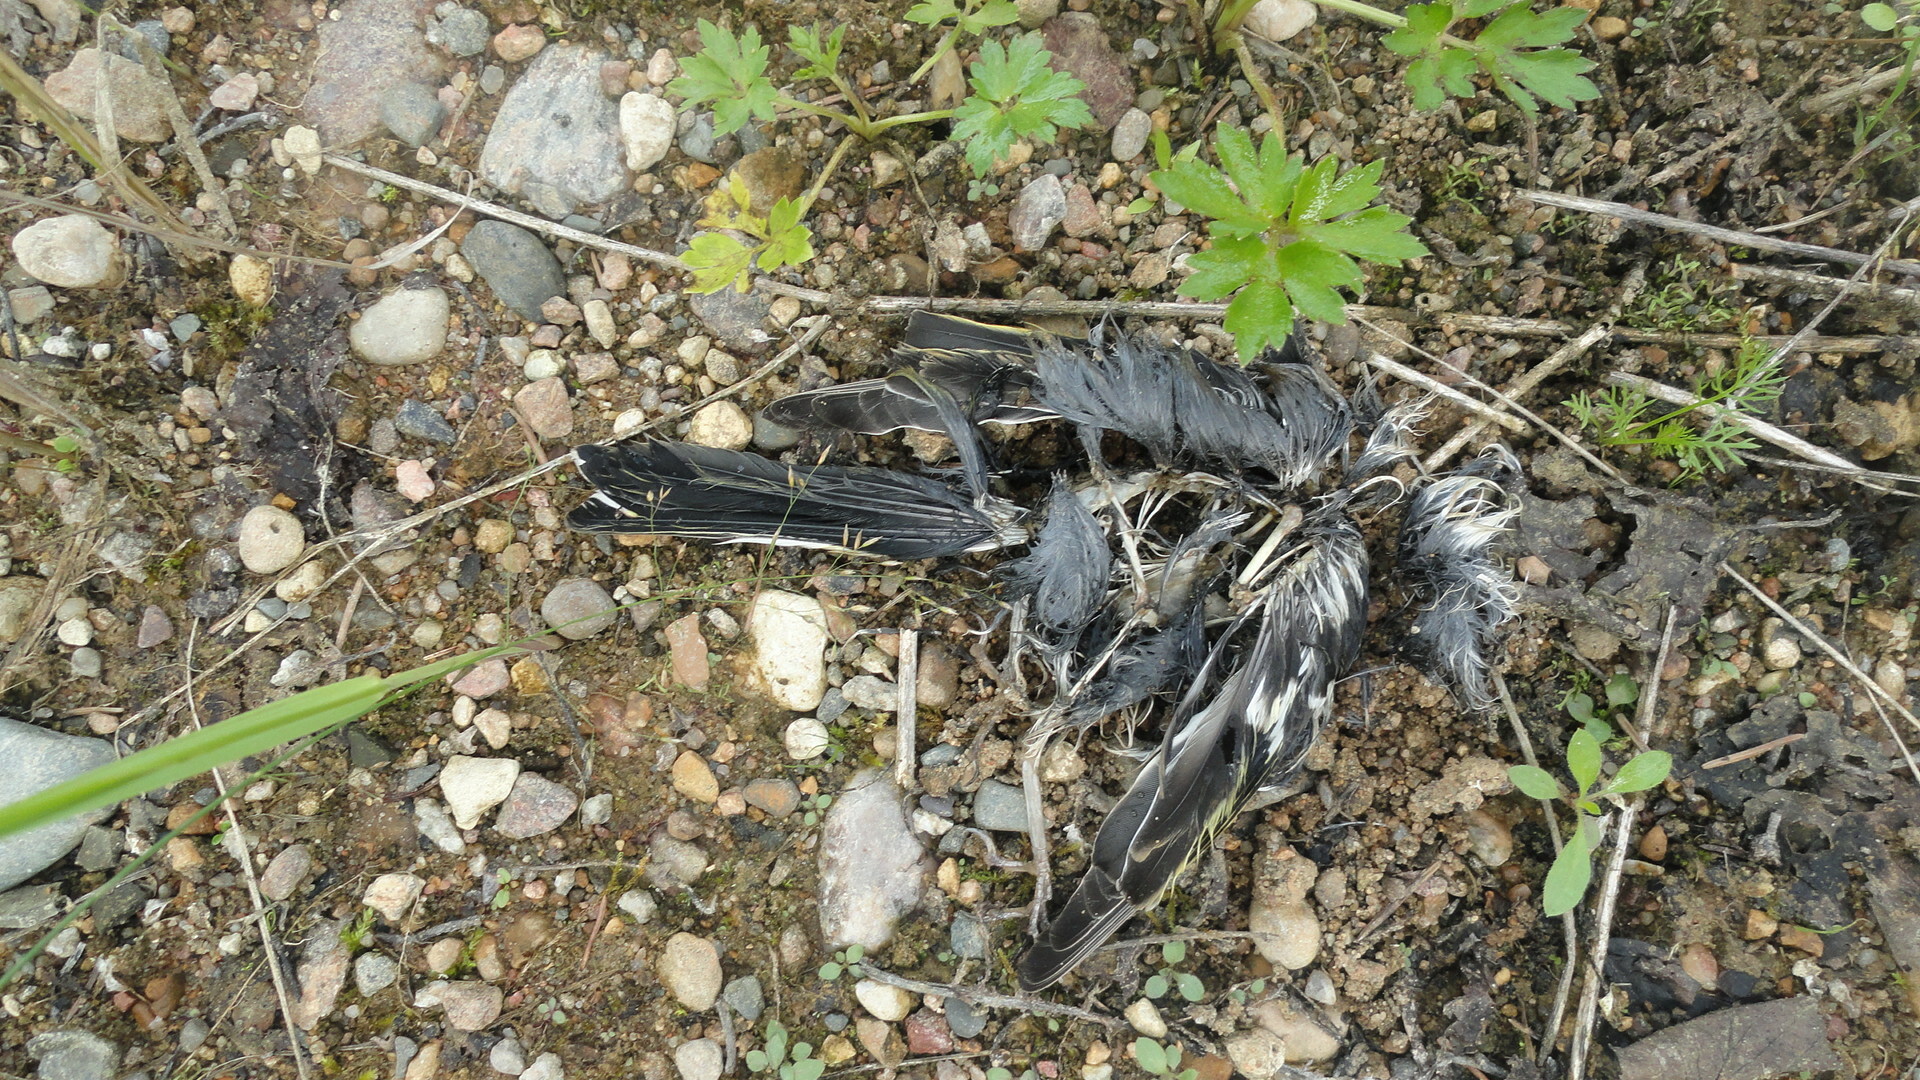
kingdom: Animalia
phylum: Chordata
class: Aves
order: Passeriformes
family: Fringillidae
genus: Fringilla
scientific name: Fringilla coelebs
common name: Common chaffinch
